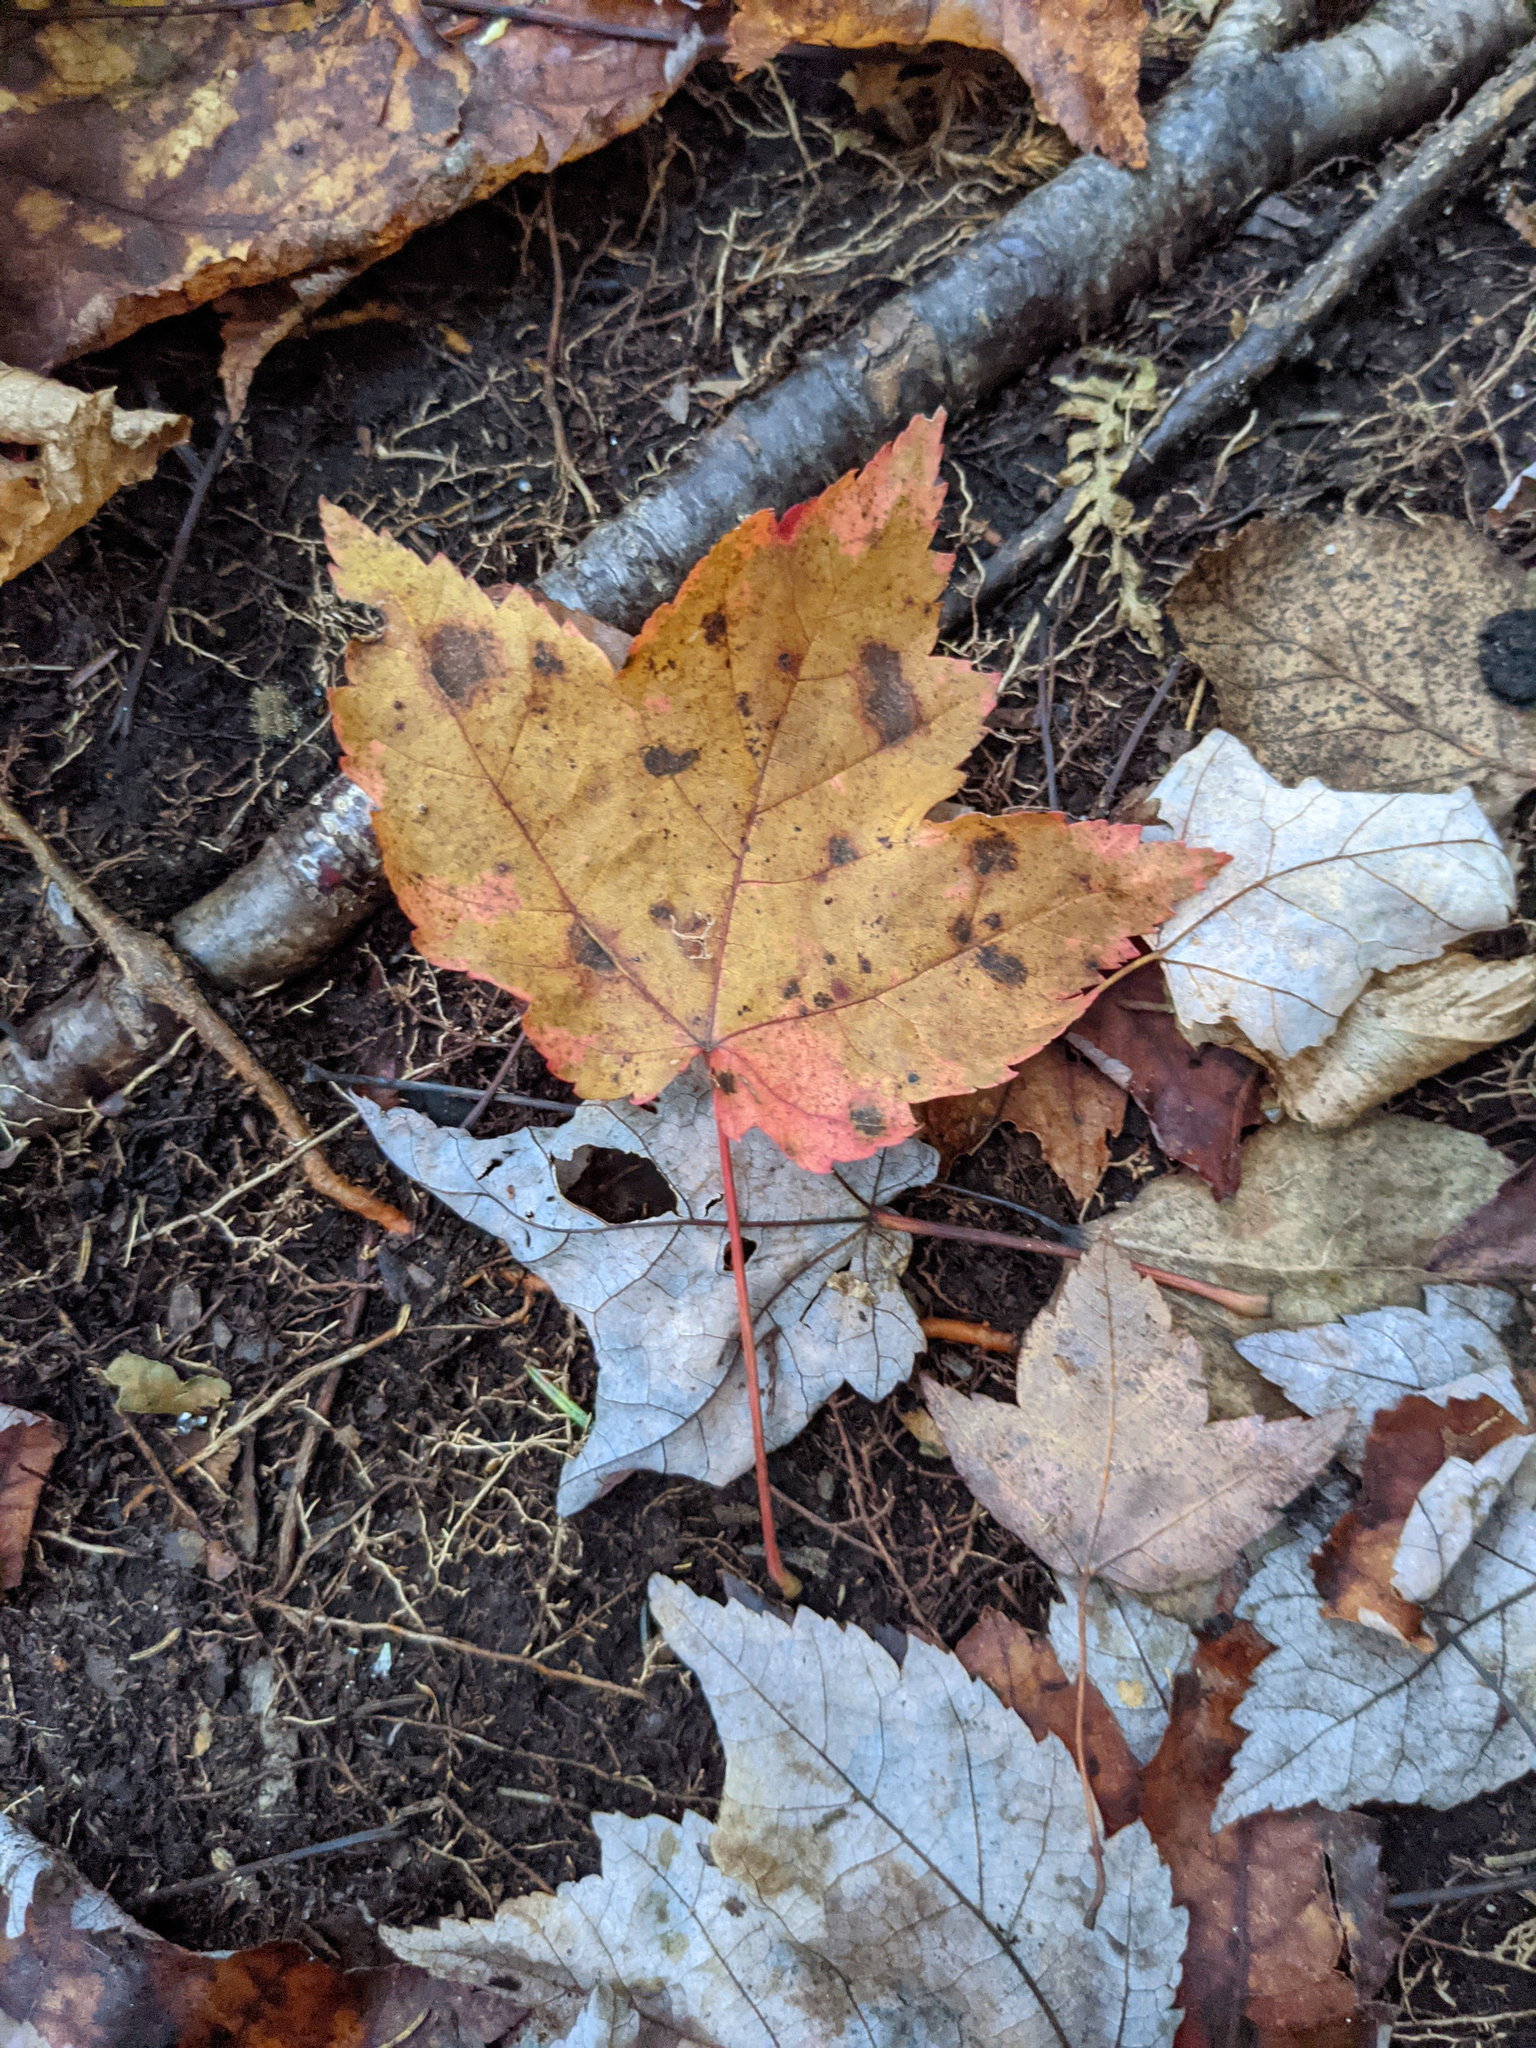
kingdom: Plantae
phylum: Tracheophyta
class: Magnoliopsida
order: Sapindales
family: Sapindaceae
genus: Acer
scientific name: Acer rubrum
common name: Red maple
